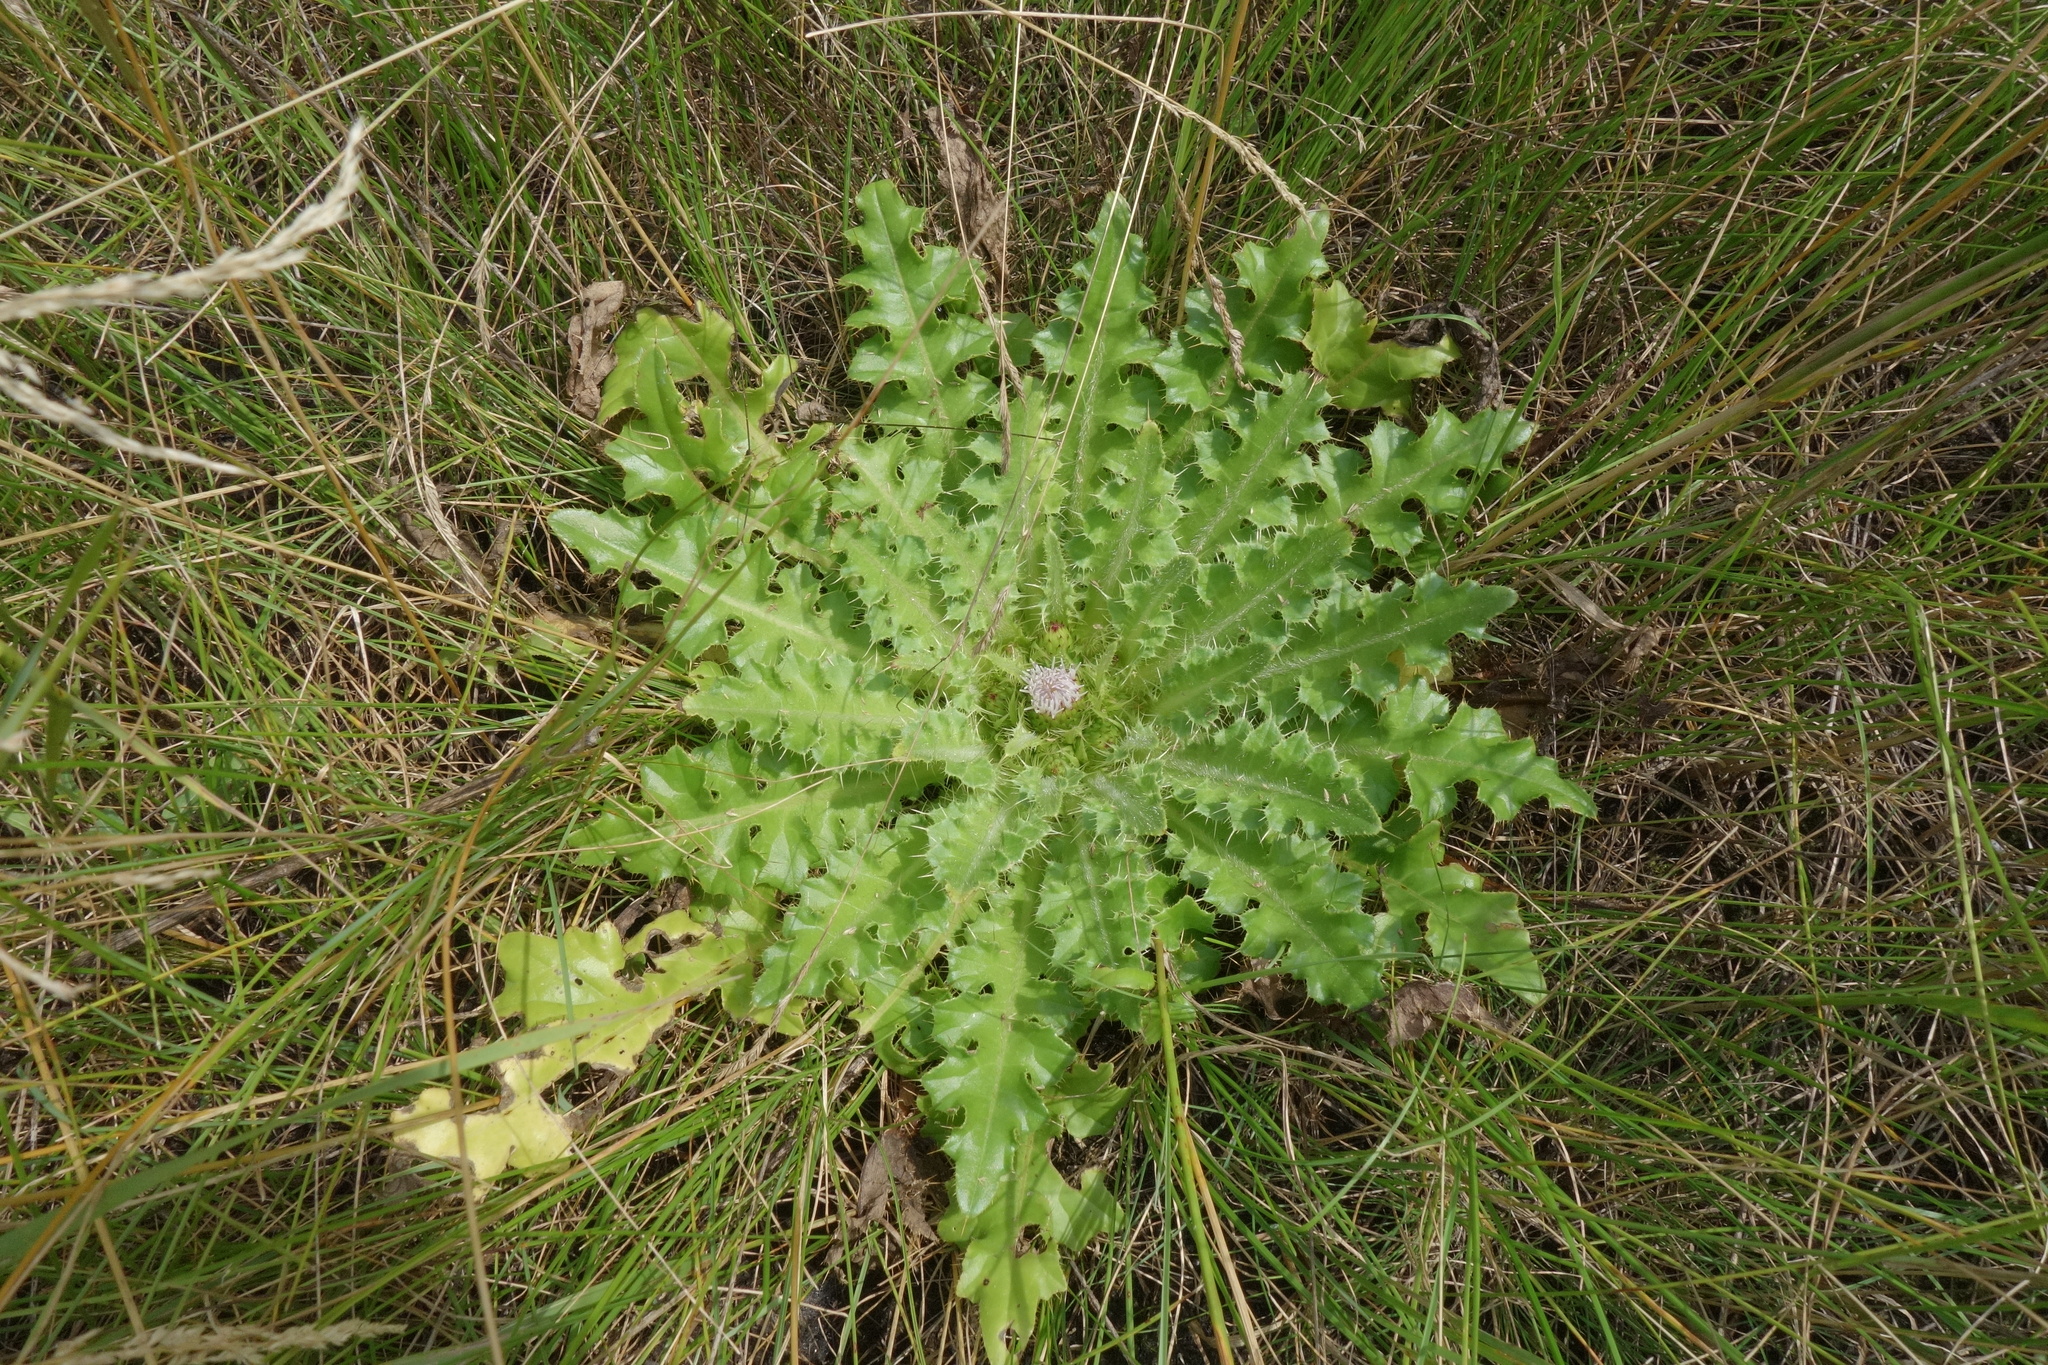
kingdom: Plantae
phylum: Tracheophyta
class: Magnoliopsida
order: Asterales
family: Asteraceae
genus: Cirsium
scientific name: Cirsium esculentum
